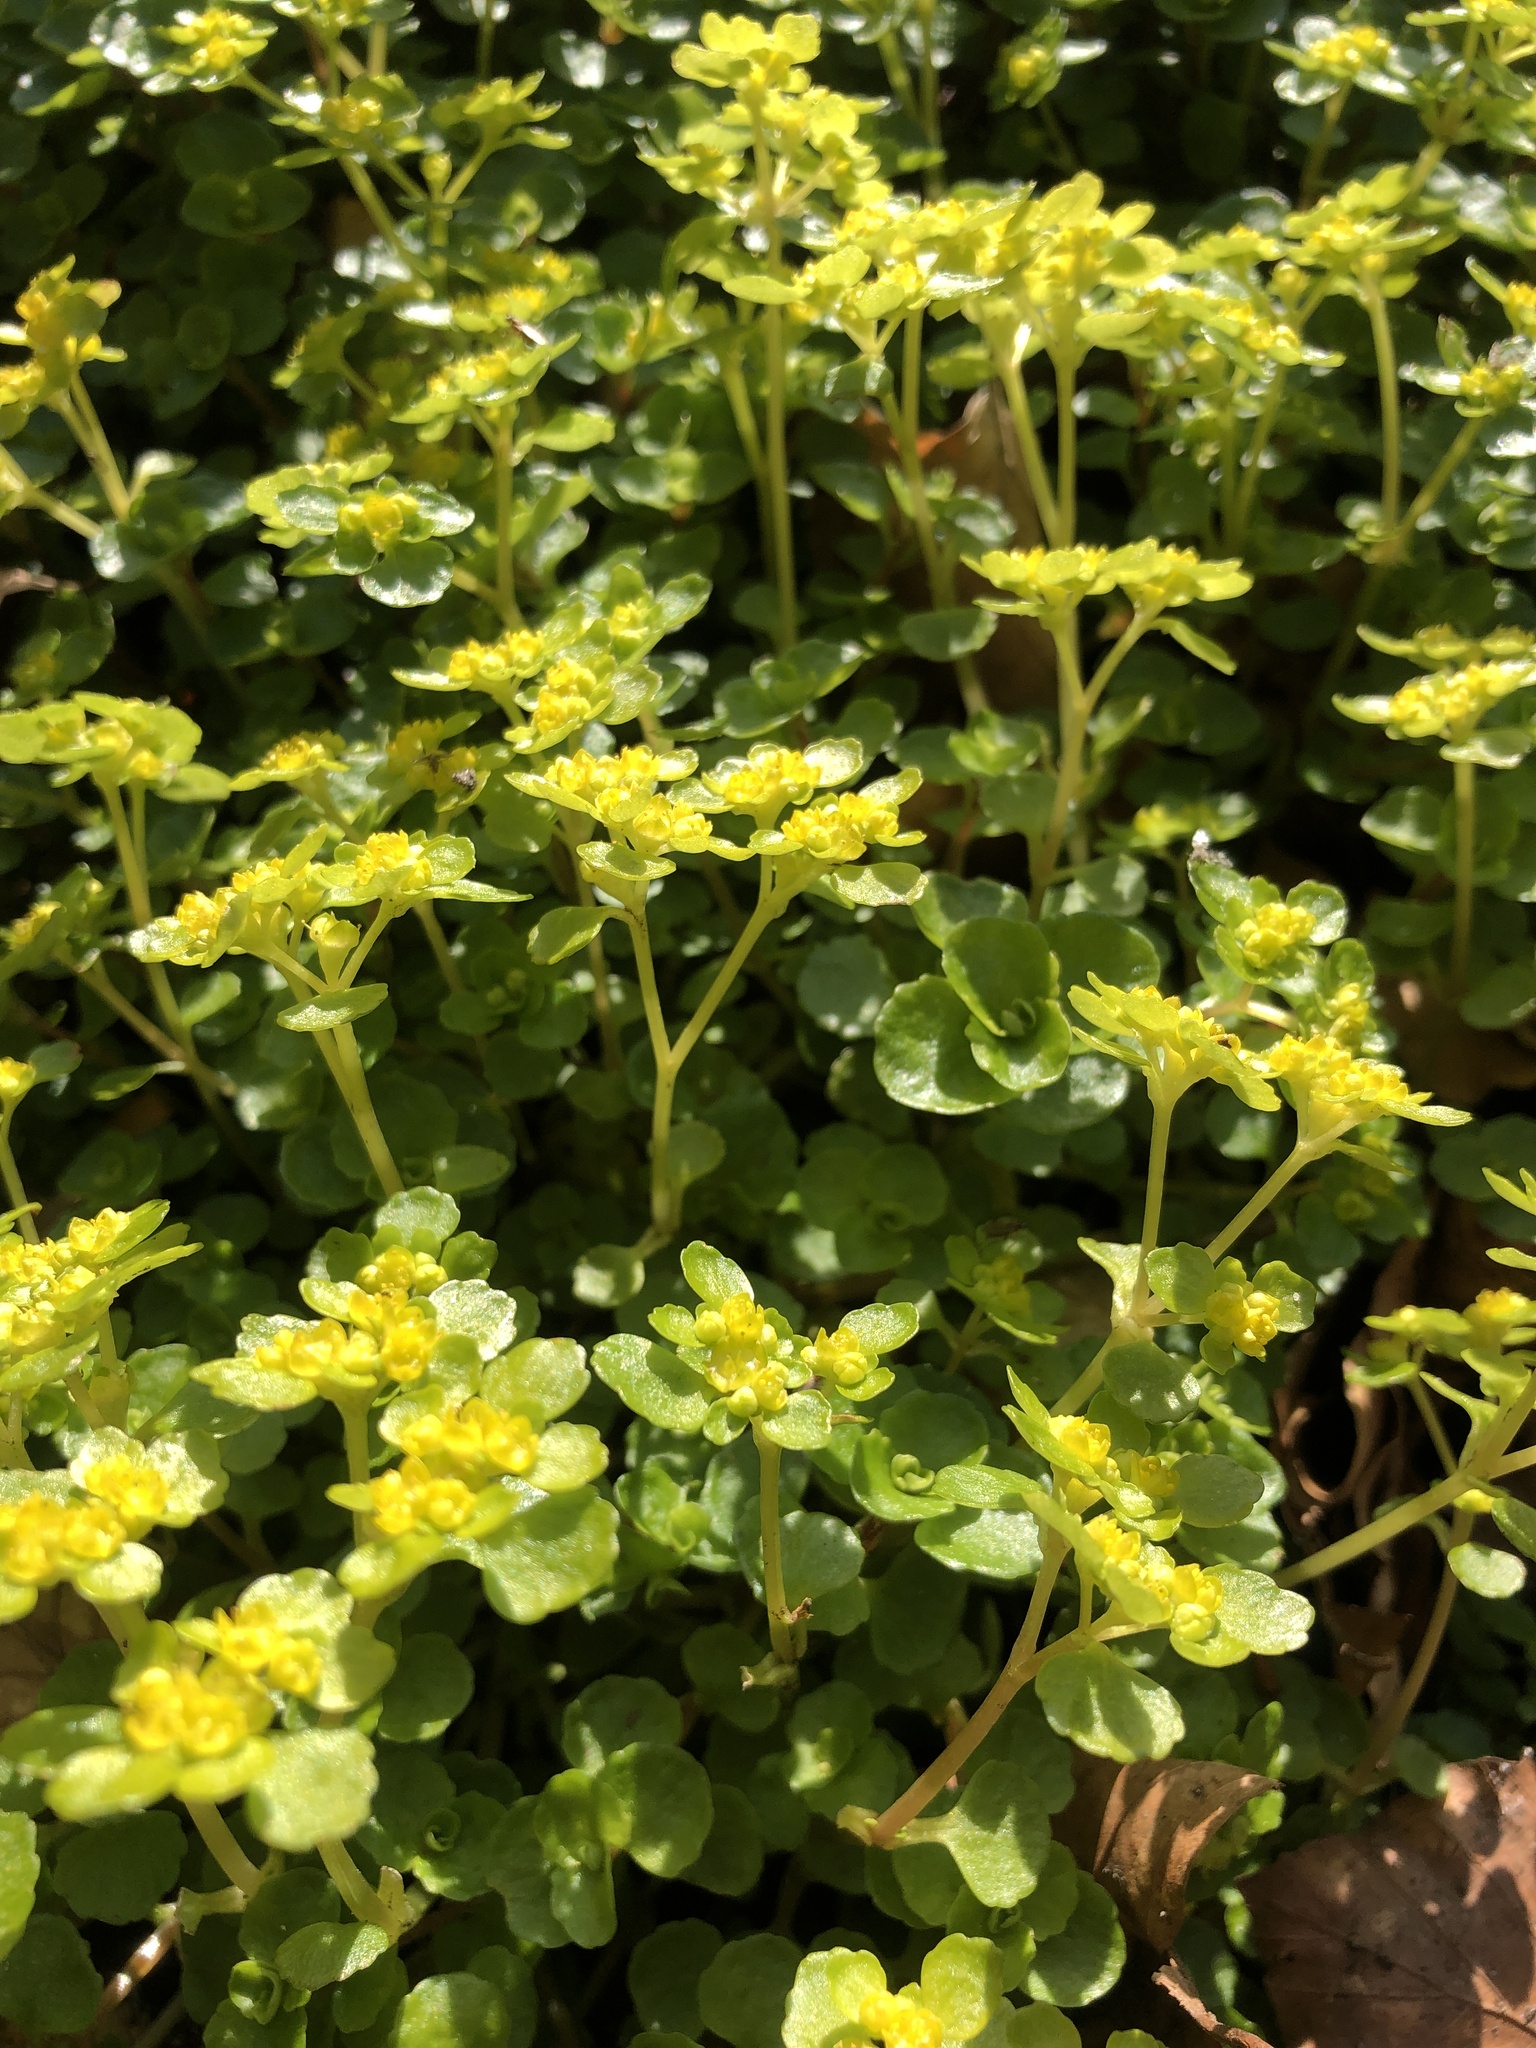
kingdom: Plantae
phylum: Tracheophyta
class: Magnoliopsida
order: Saxifragales
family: Saxifragaceae
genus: Chrysosplenium
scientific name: Chrysosplenium oppositifolium
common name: Opposite-leaved golden-saxifrage
